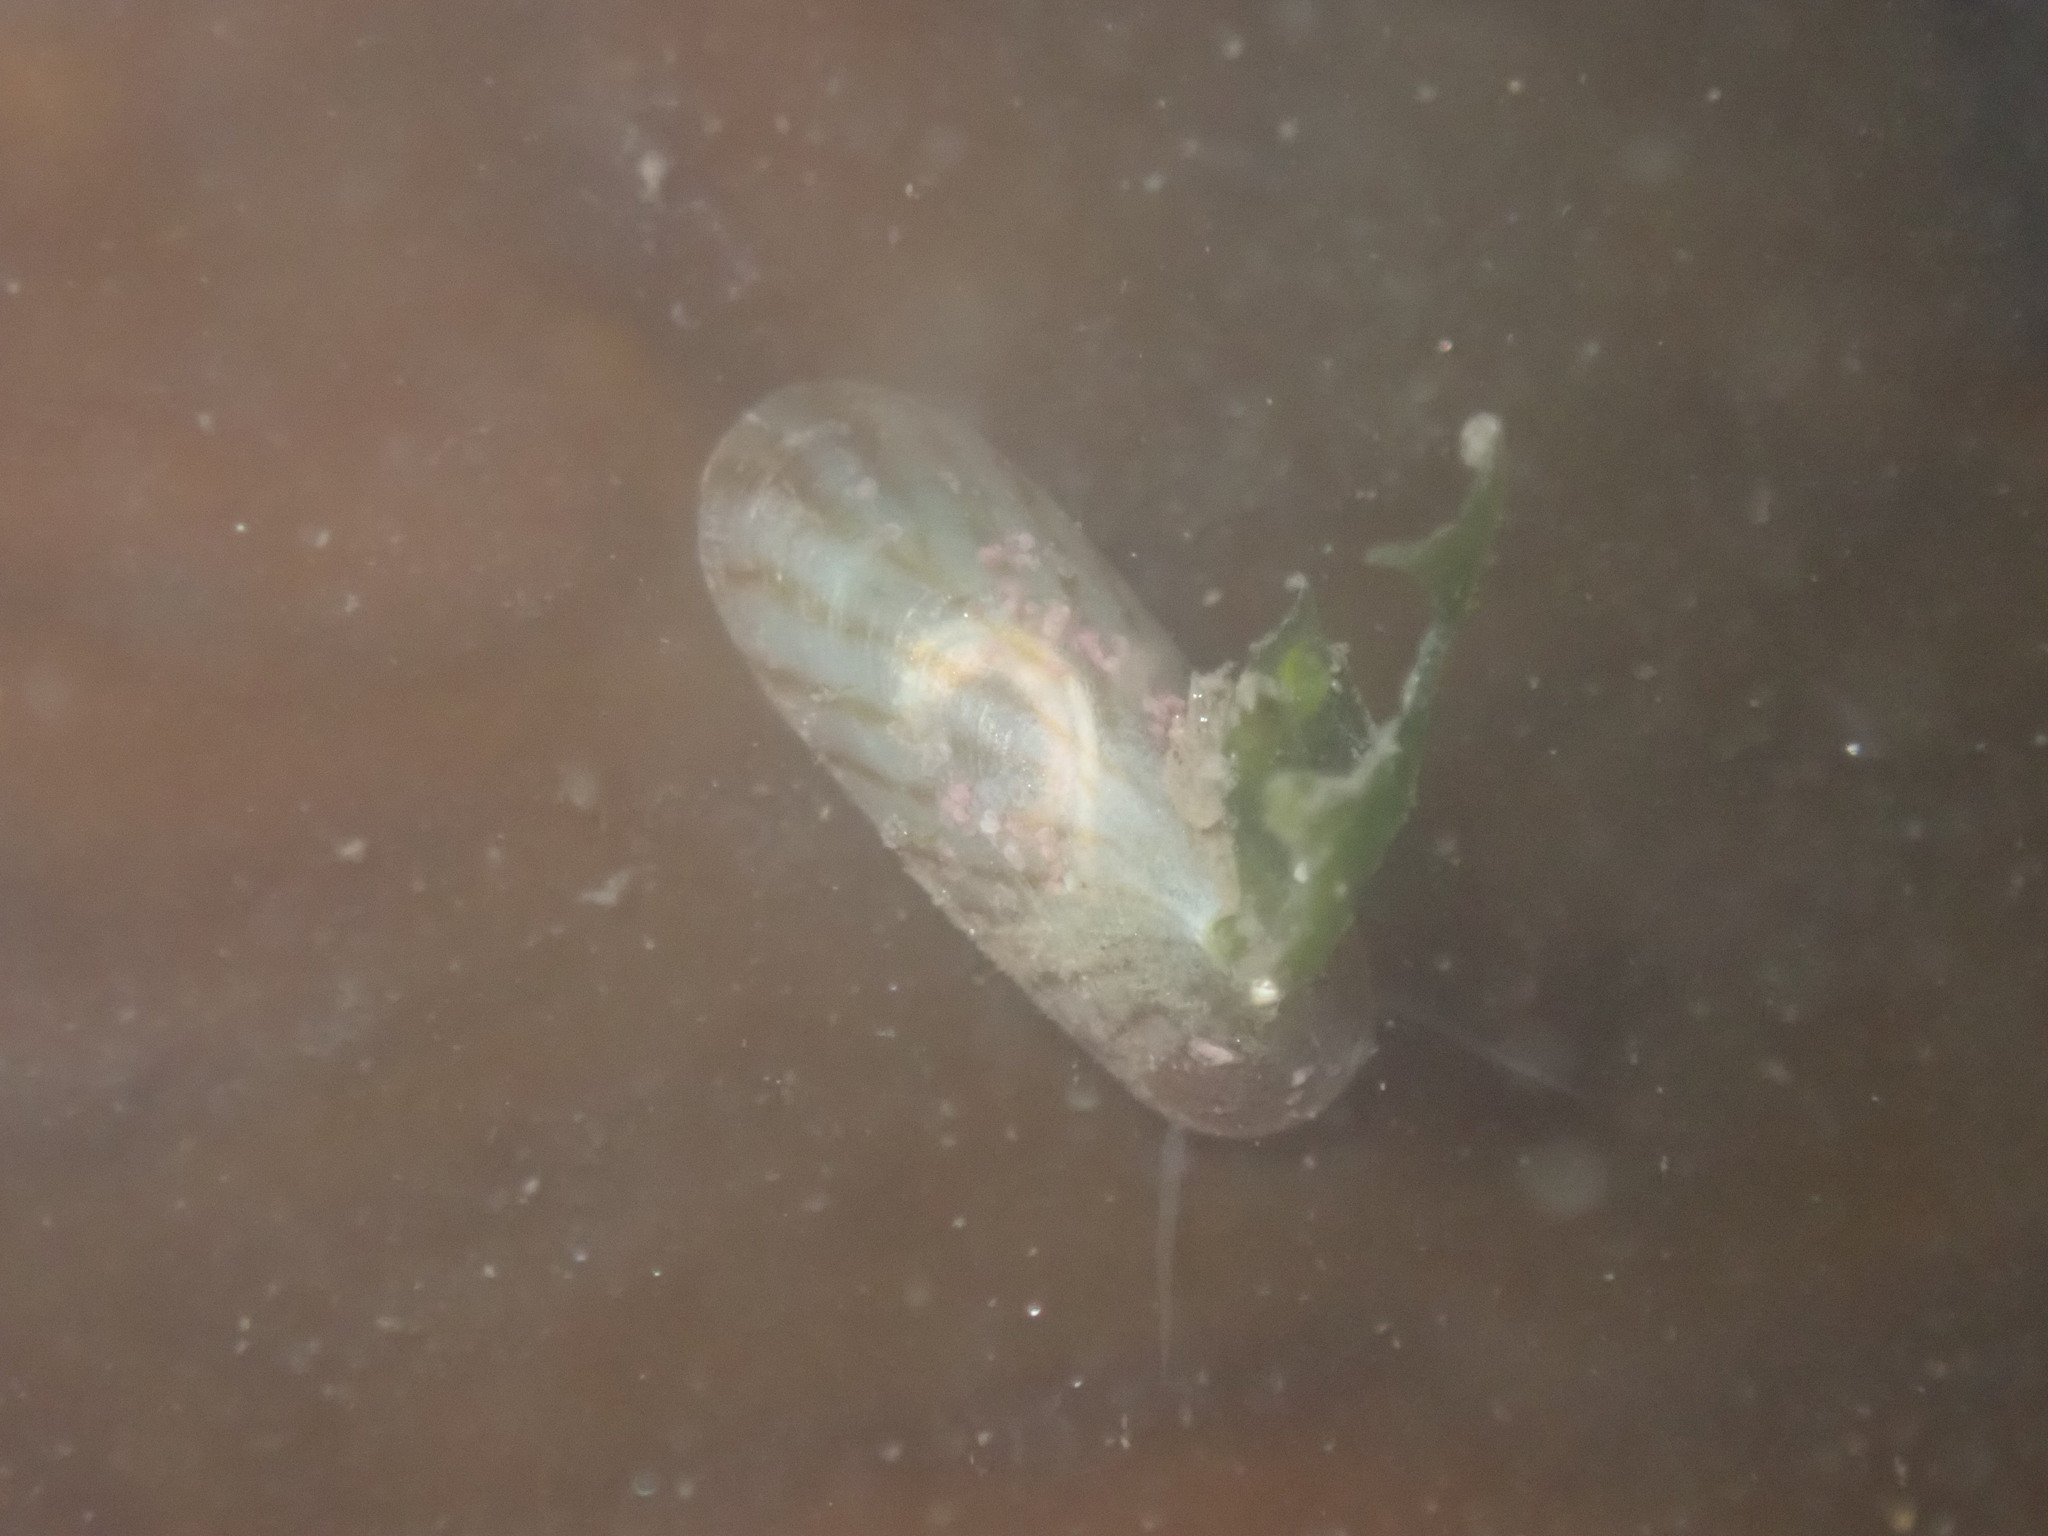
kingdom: Animalia
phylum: Mollusca
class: Gastropoda
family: Lottiidae
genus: Tectura
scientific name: Tectura paleacea
